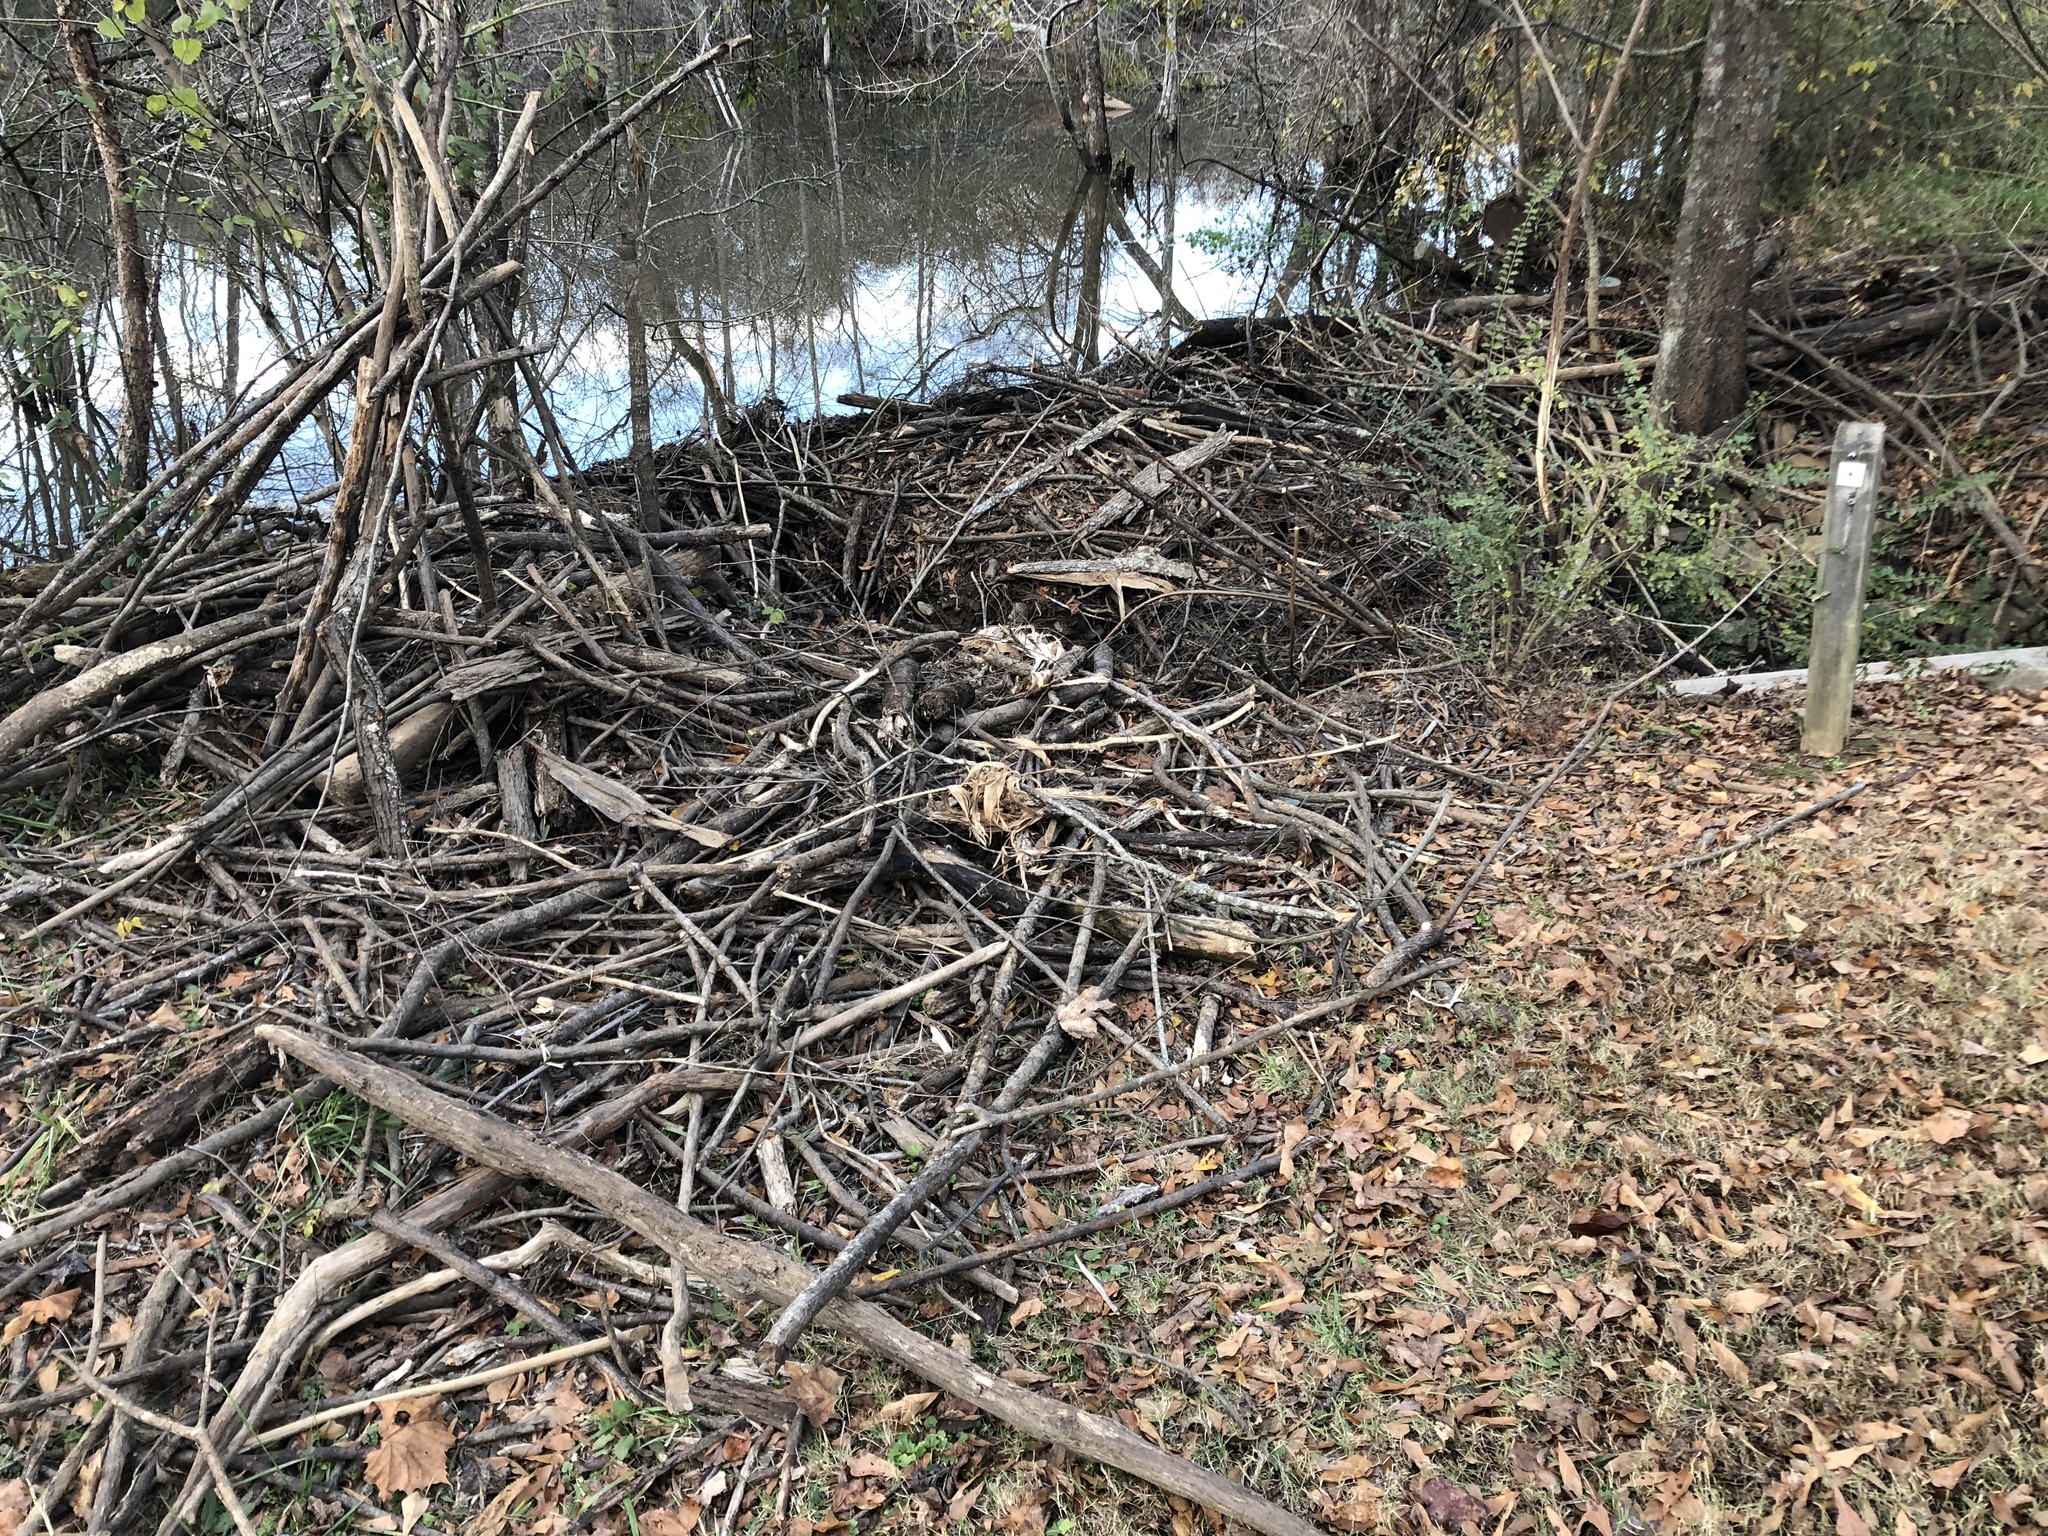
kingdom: Animalia
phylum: Chordata
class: Mammalia
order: Rodentia
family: Castoridae
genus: Castor
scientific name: Castor canadensis
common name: American beaver
